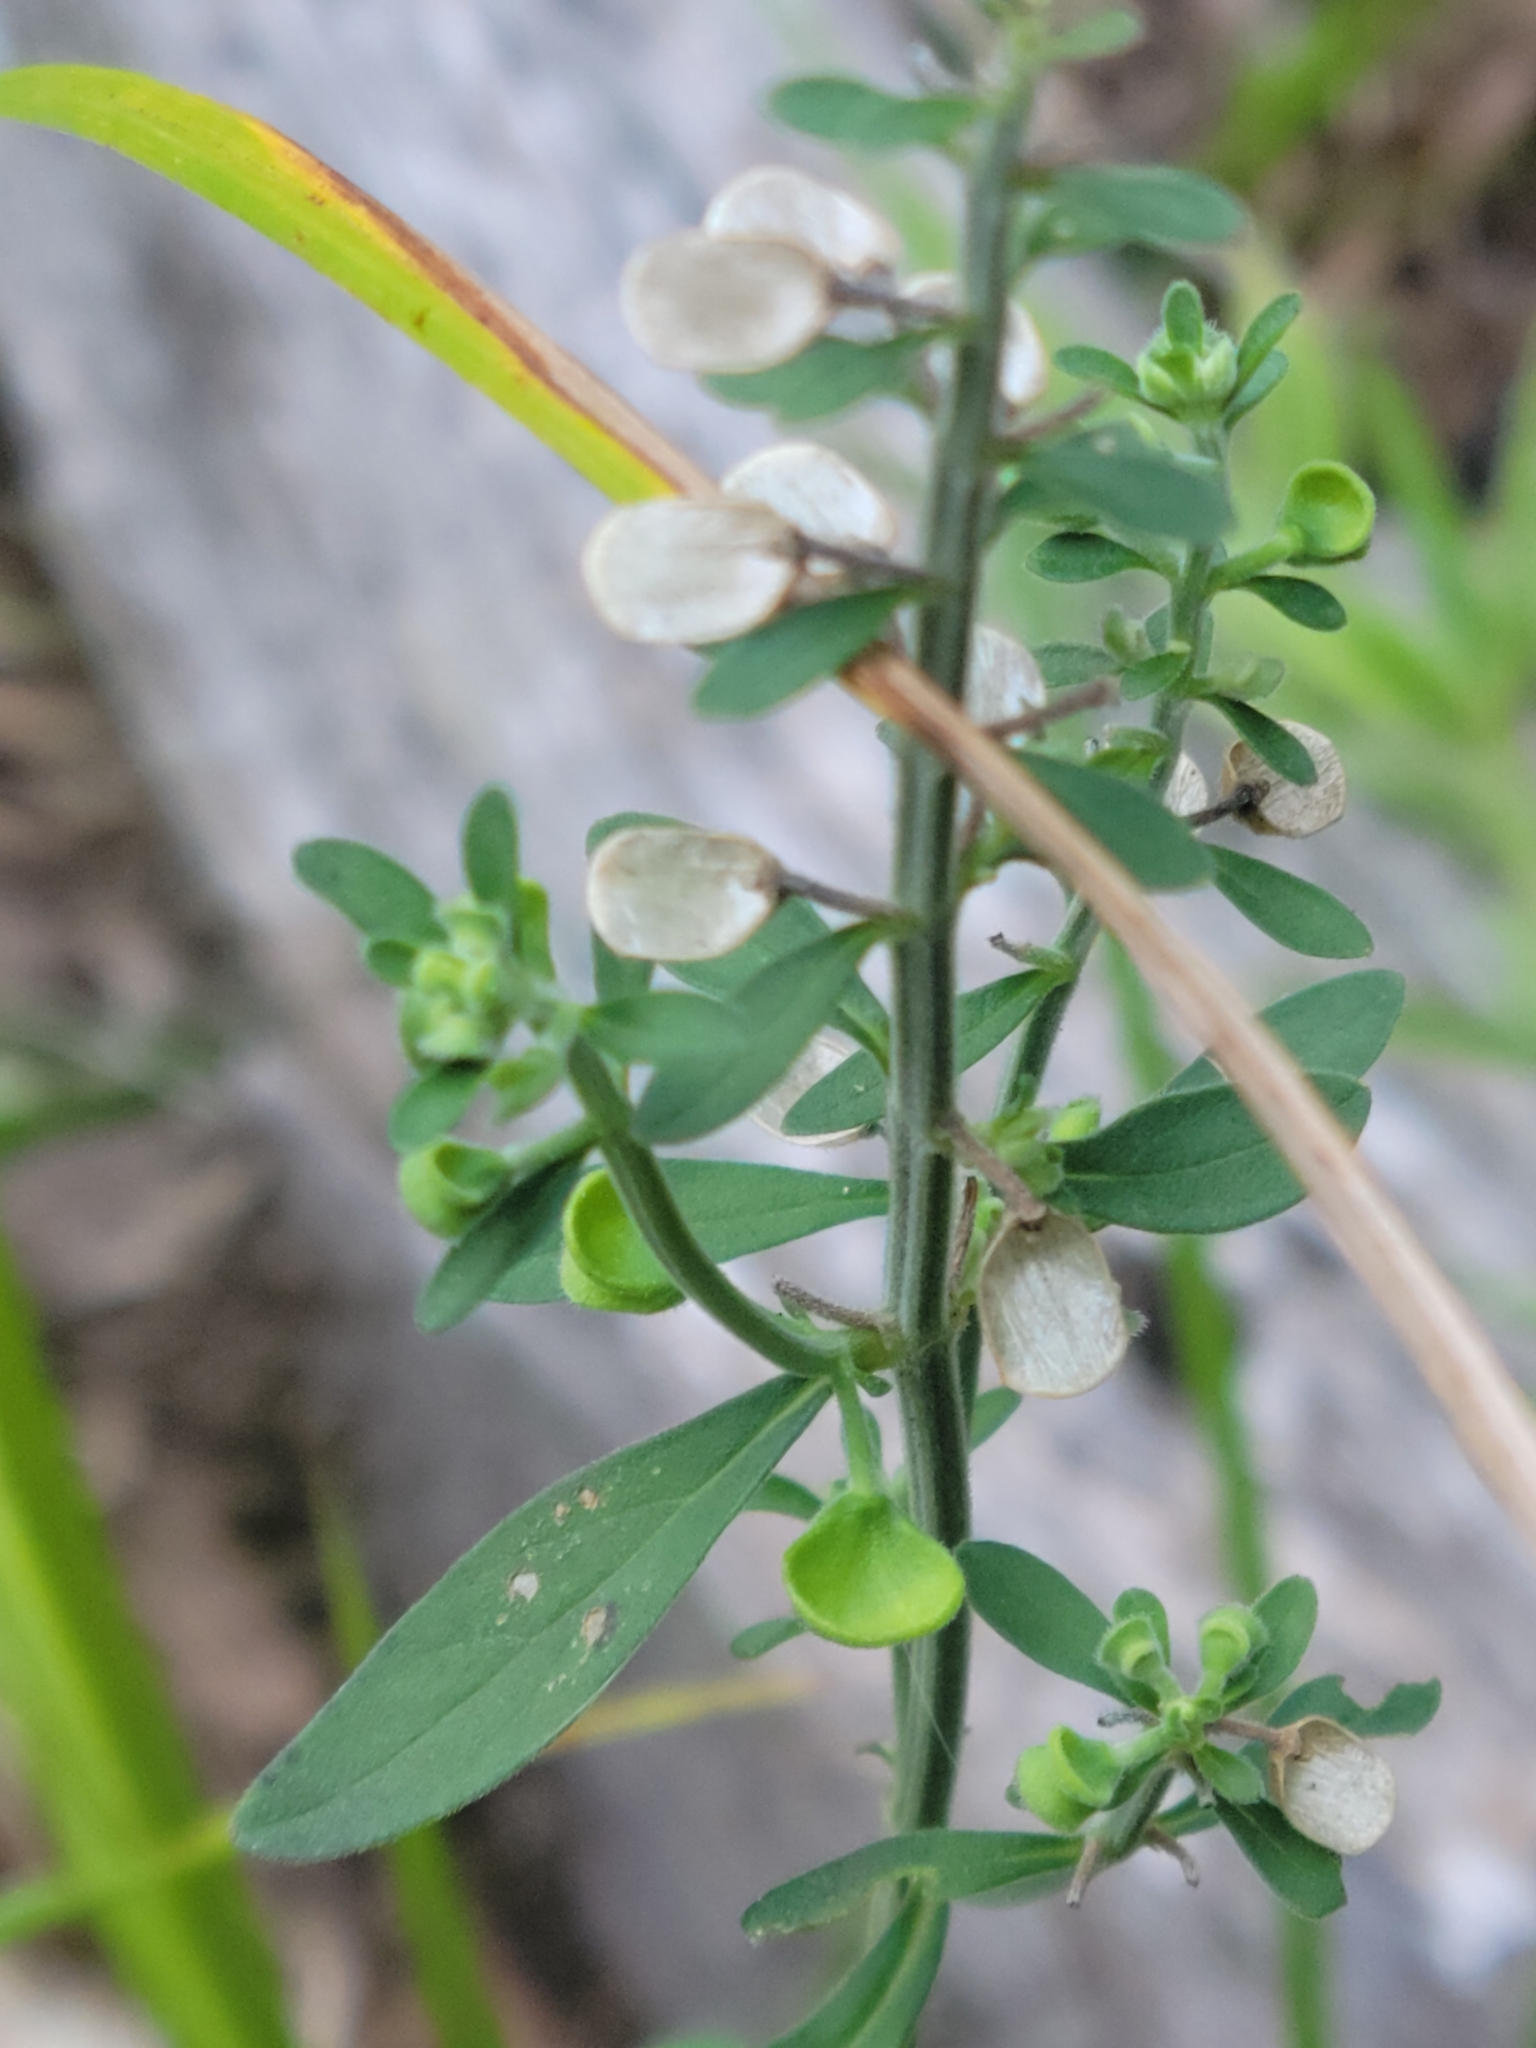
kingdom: Plantae
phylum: Tracheophyta
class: Magnoliopsida
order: Lamiales
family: Lamiaceae
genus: Scutellaria
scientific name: Scutellaria integrifolia
